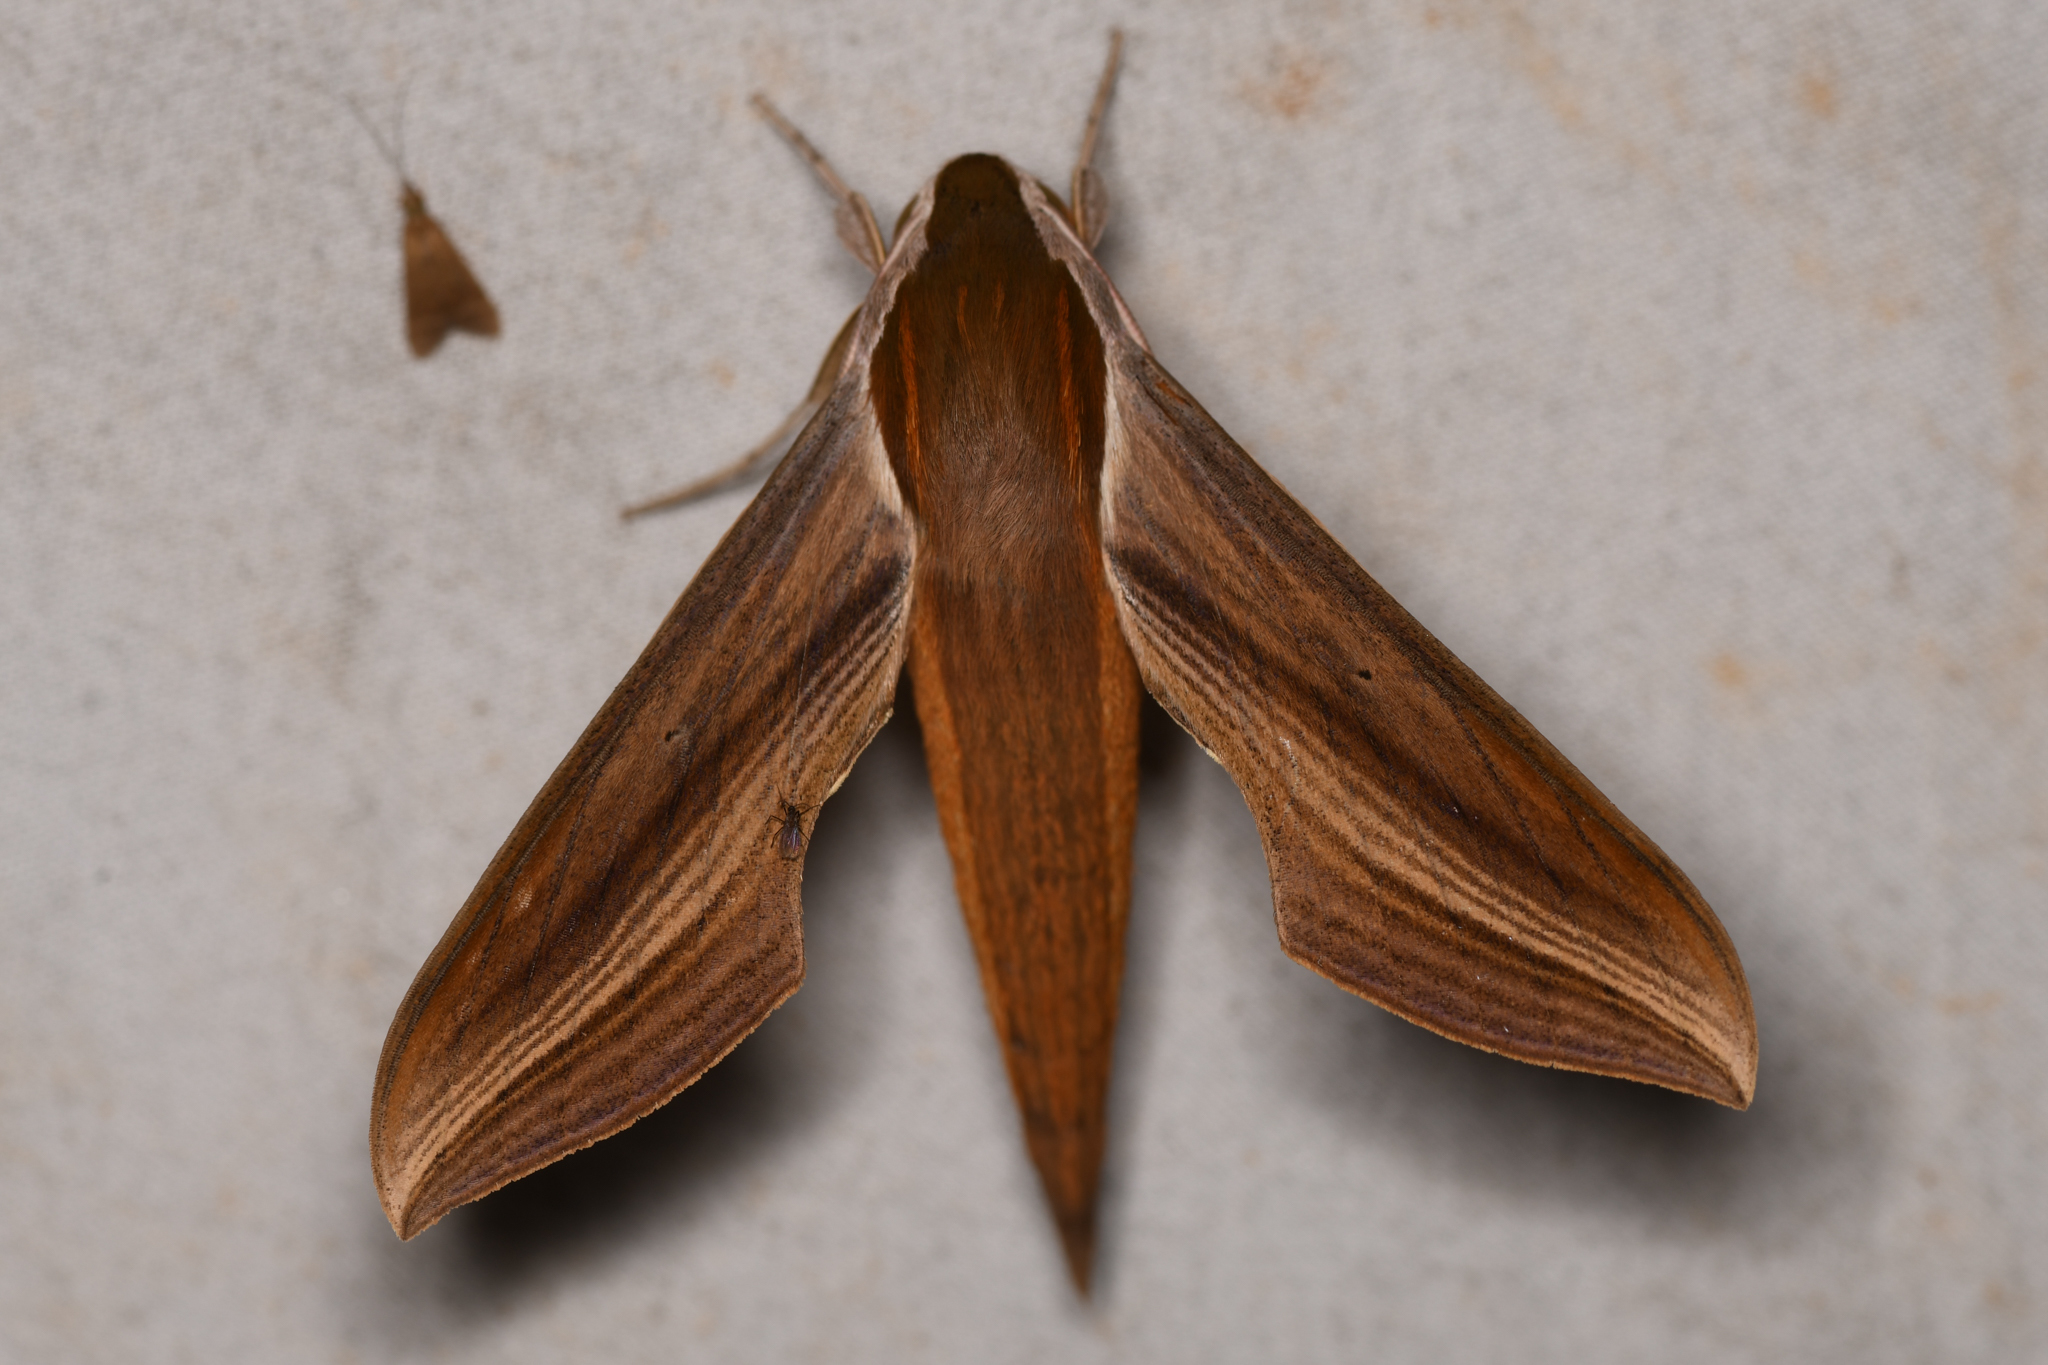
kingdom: Animalia
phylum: Arthropoda
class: Insecta
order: Lepidoptera
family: Sphingidae
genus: Xylophanes
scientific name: Xylophanes tersa
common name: Tersa sphinx
